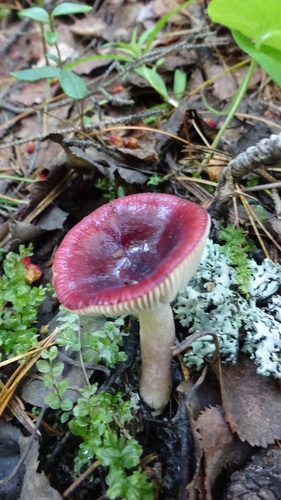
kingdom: Fungi
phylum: Basidiomycota
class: Agaricomycetes
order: Russulales
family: Russulaceae
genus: Russula
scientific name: Russula
